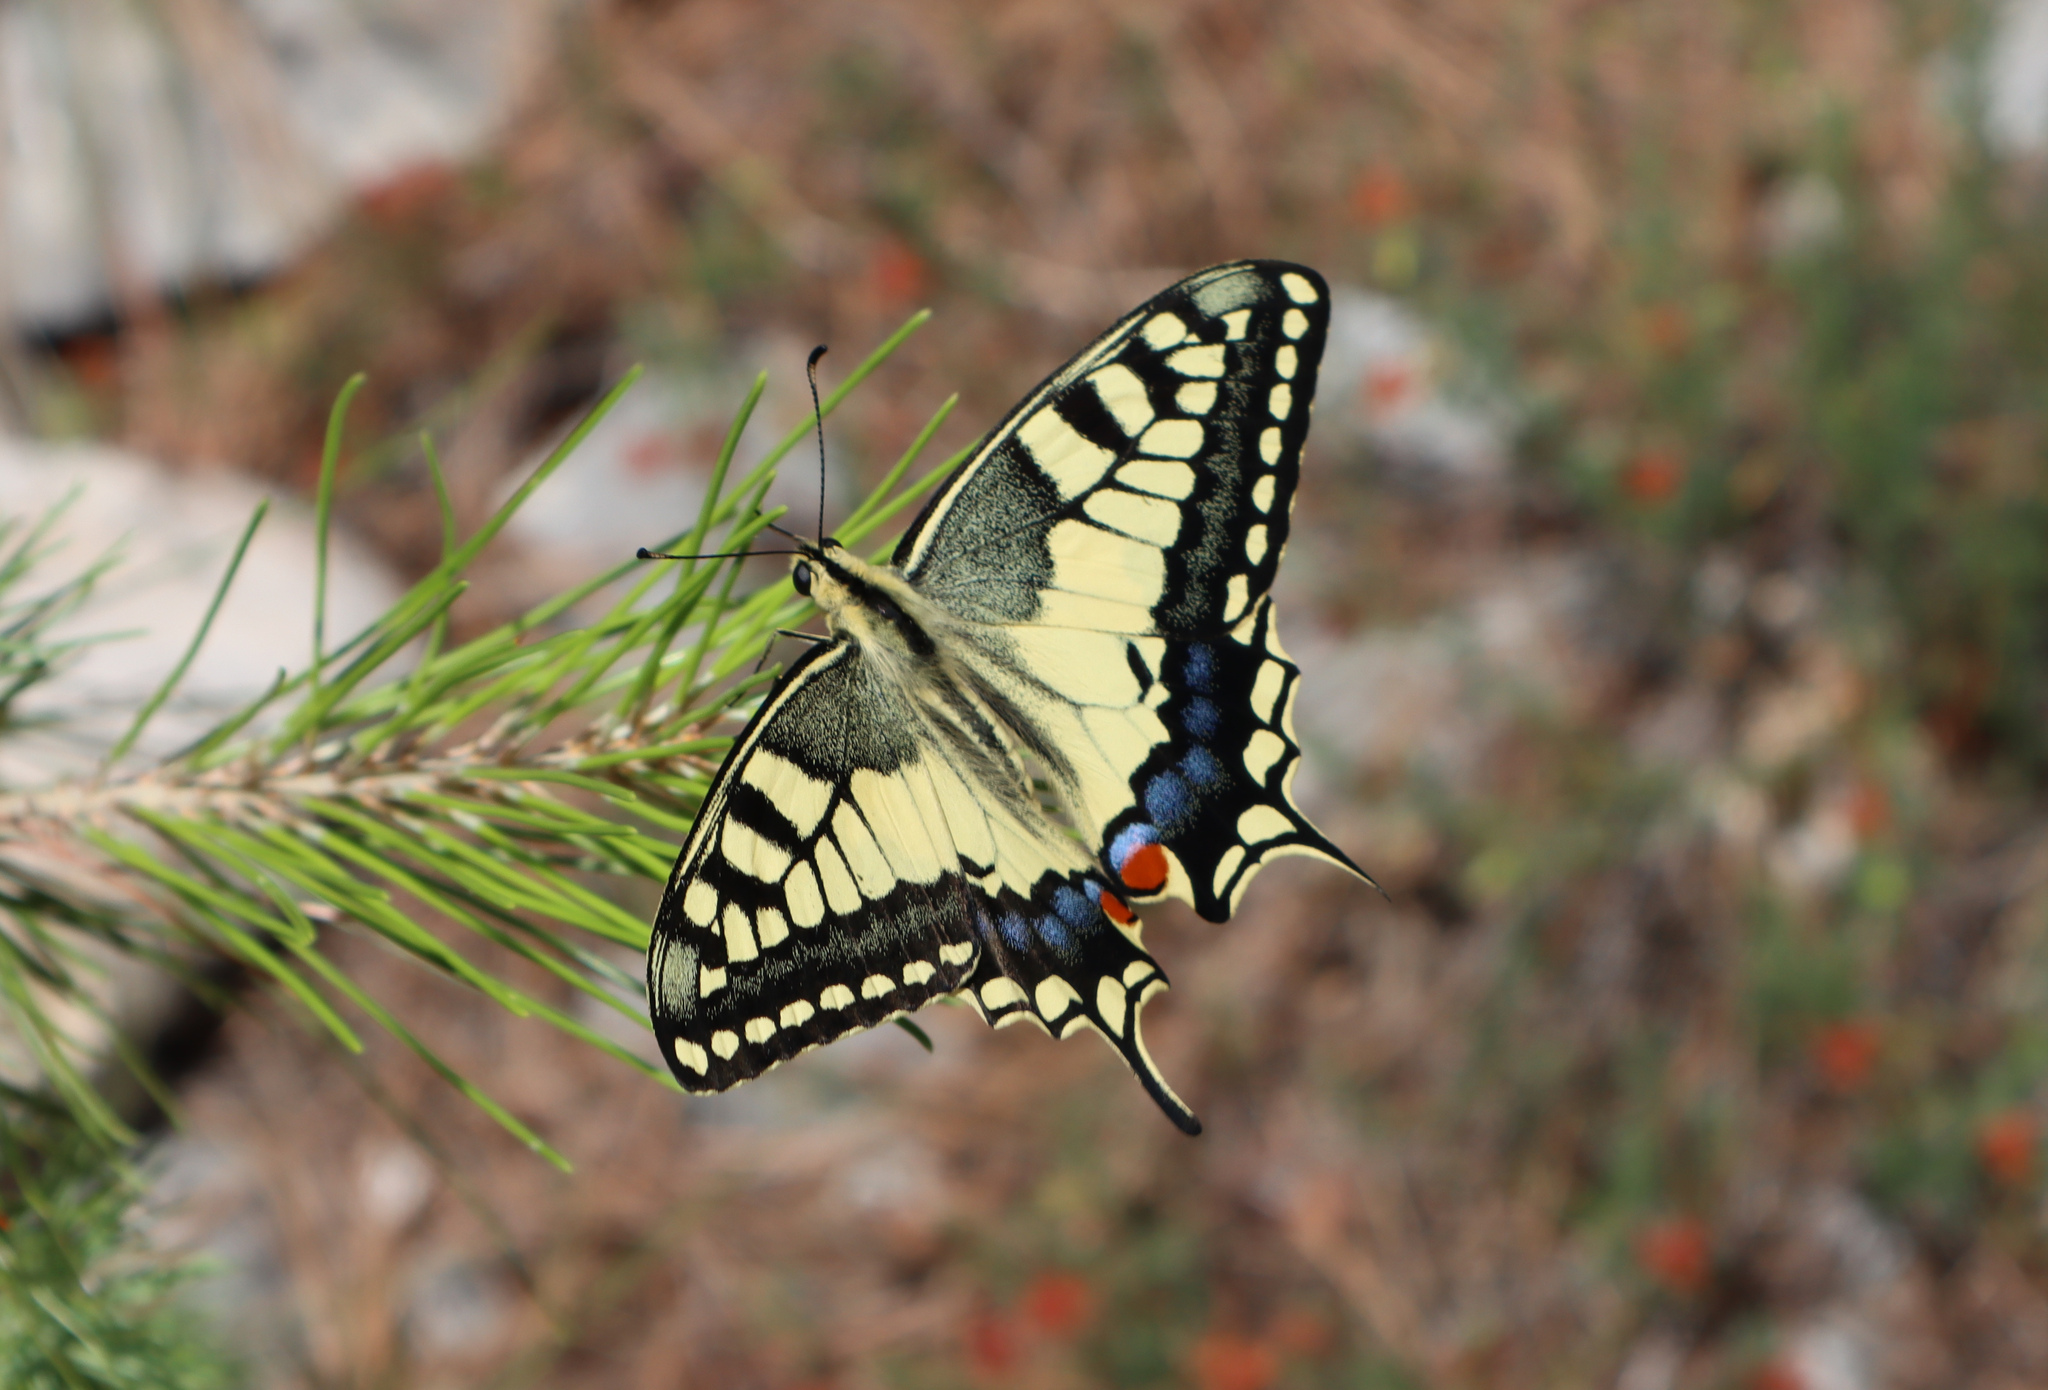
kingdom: Animalia
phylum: Arthropoda
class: Insecta
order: Lepidoptera
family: Papilionidae
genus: Papilio
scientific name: Papilio machaon
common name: Swallowtail
